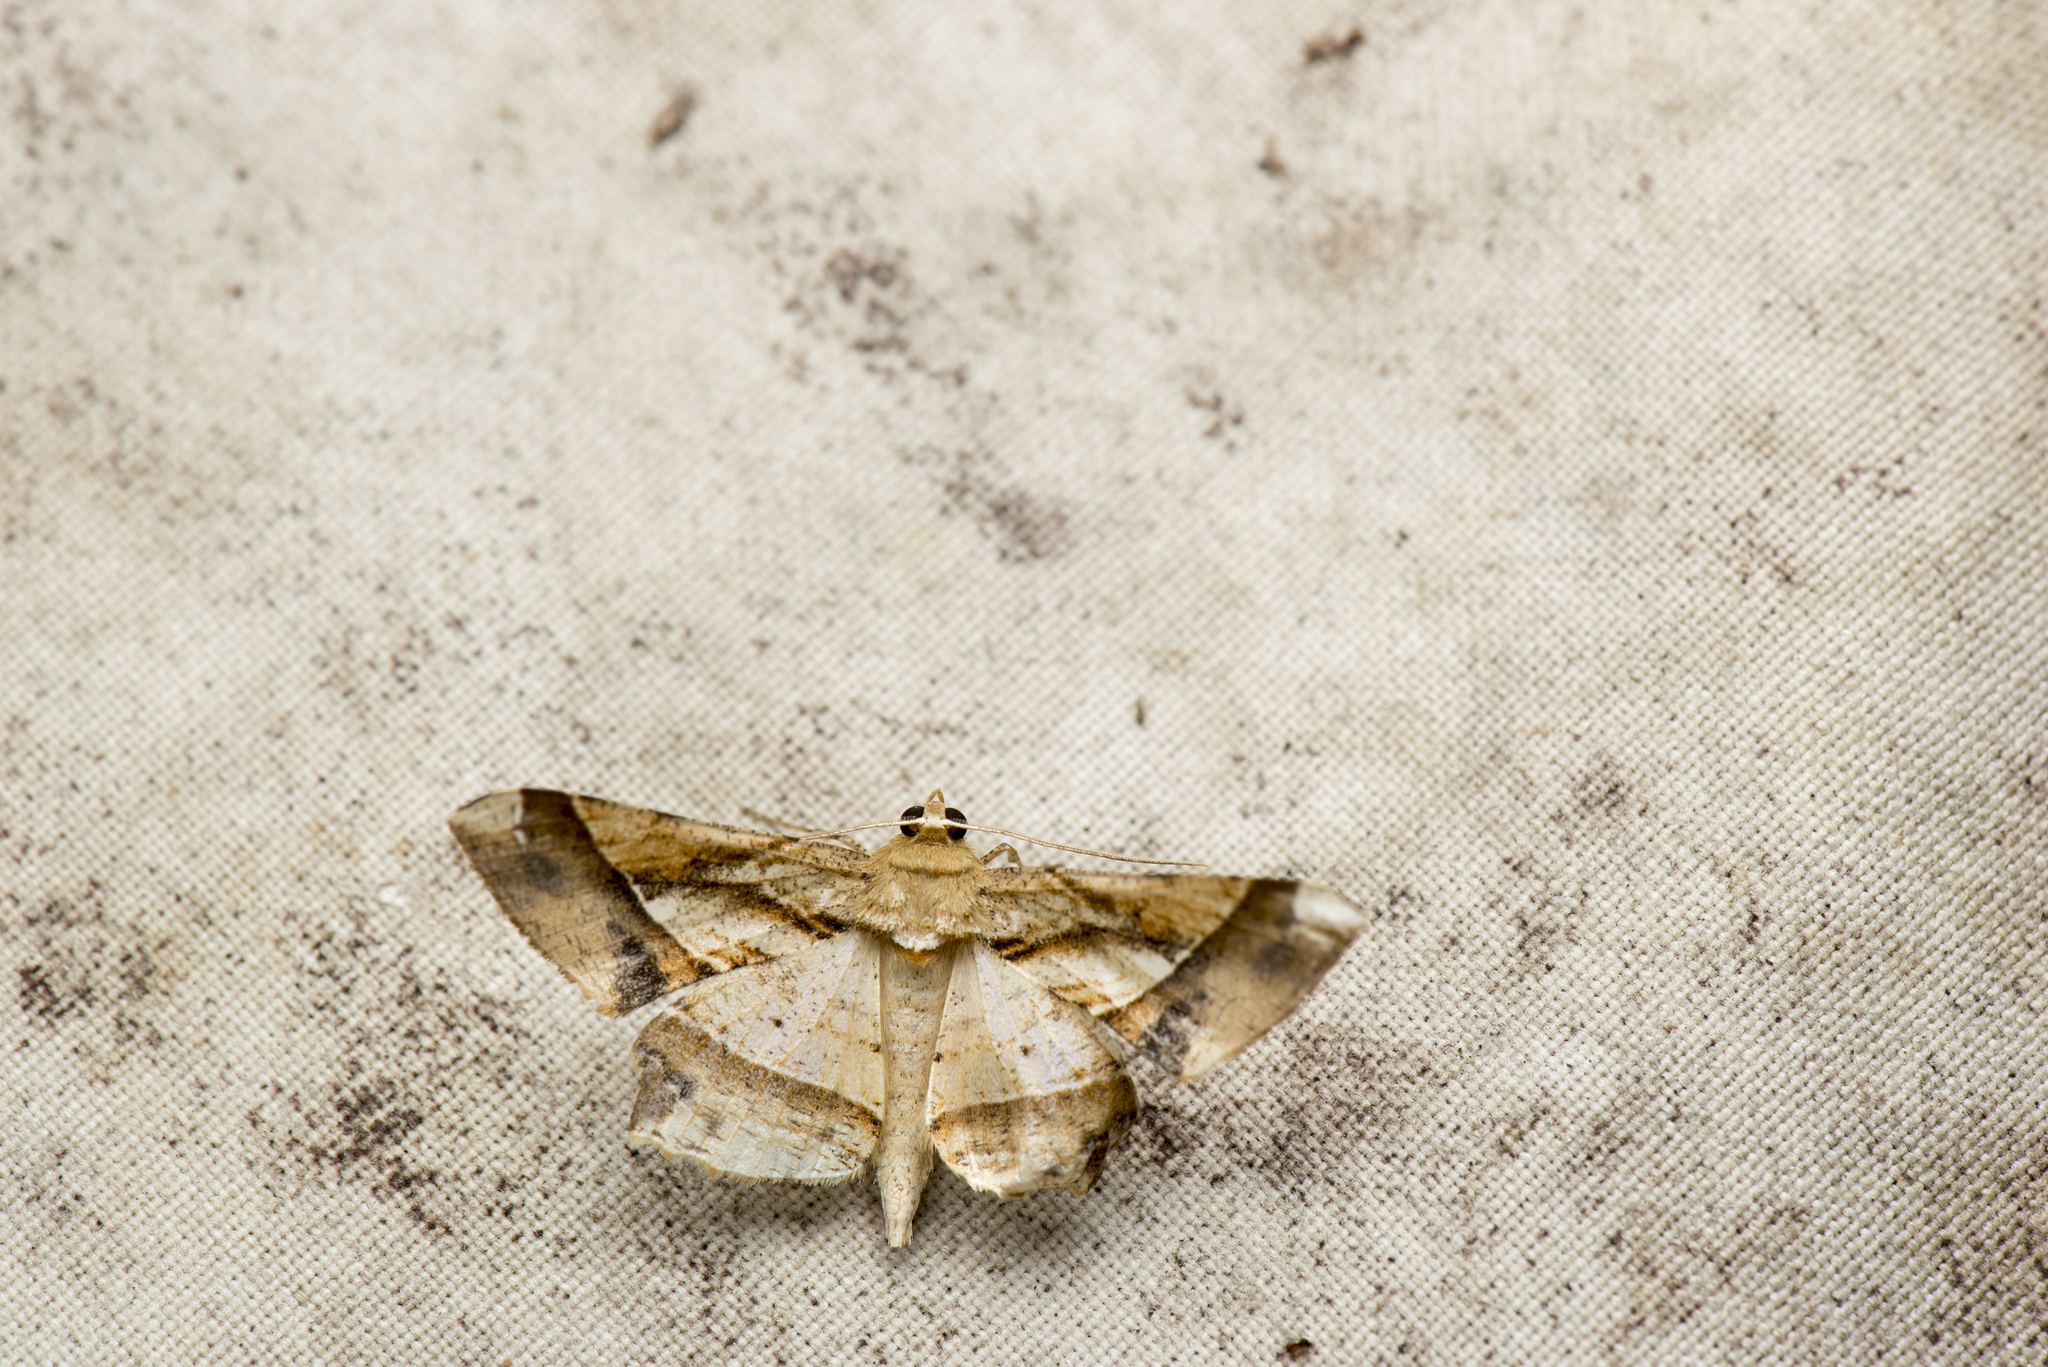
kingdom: Animalia
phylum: Arthropoda
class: Insecta
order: Lepidoptera
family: Geometridae
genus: Krananda
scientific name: Krananda latimarginaria
